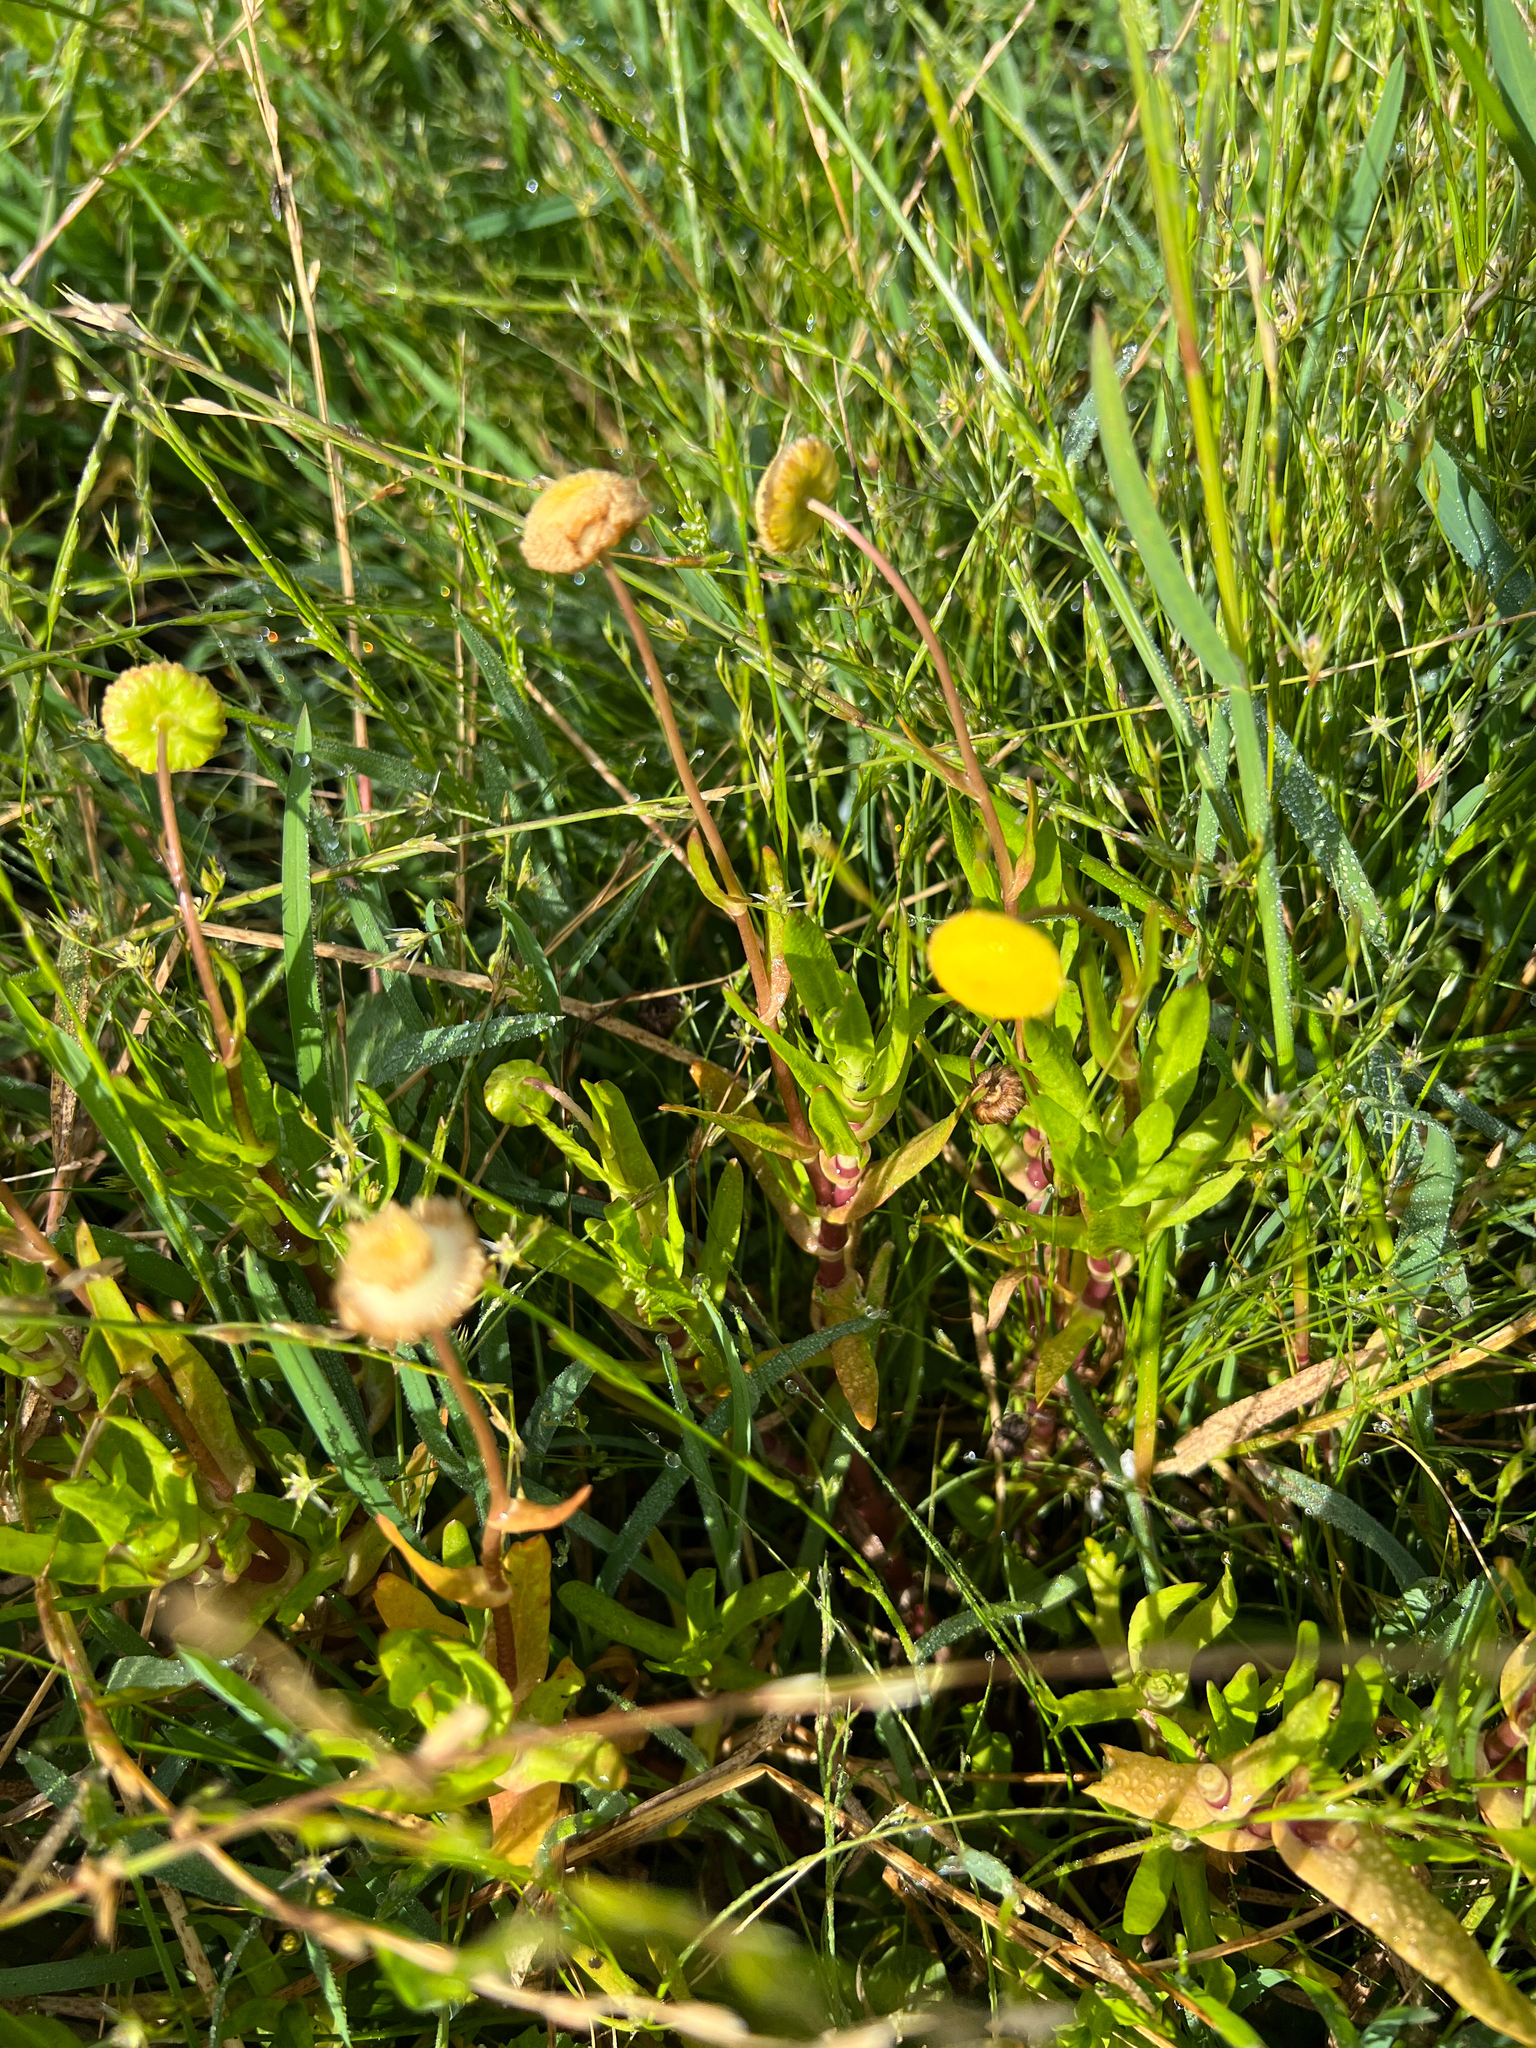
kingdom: Plantae
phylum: Tracheophyta
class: Magnoliopsida
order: Asterales
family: Asteraceae
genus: Cotula
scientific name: Cotula coronopifolia
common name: Buttonweed
